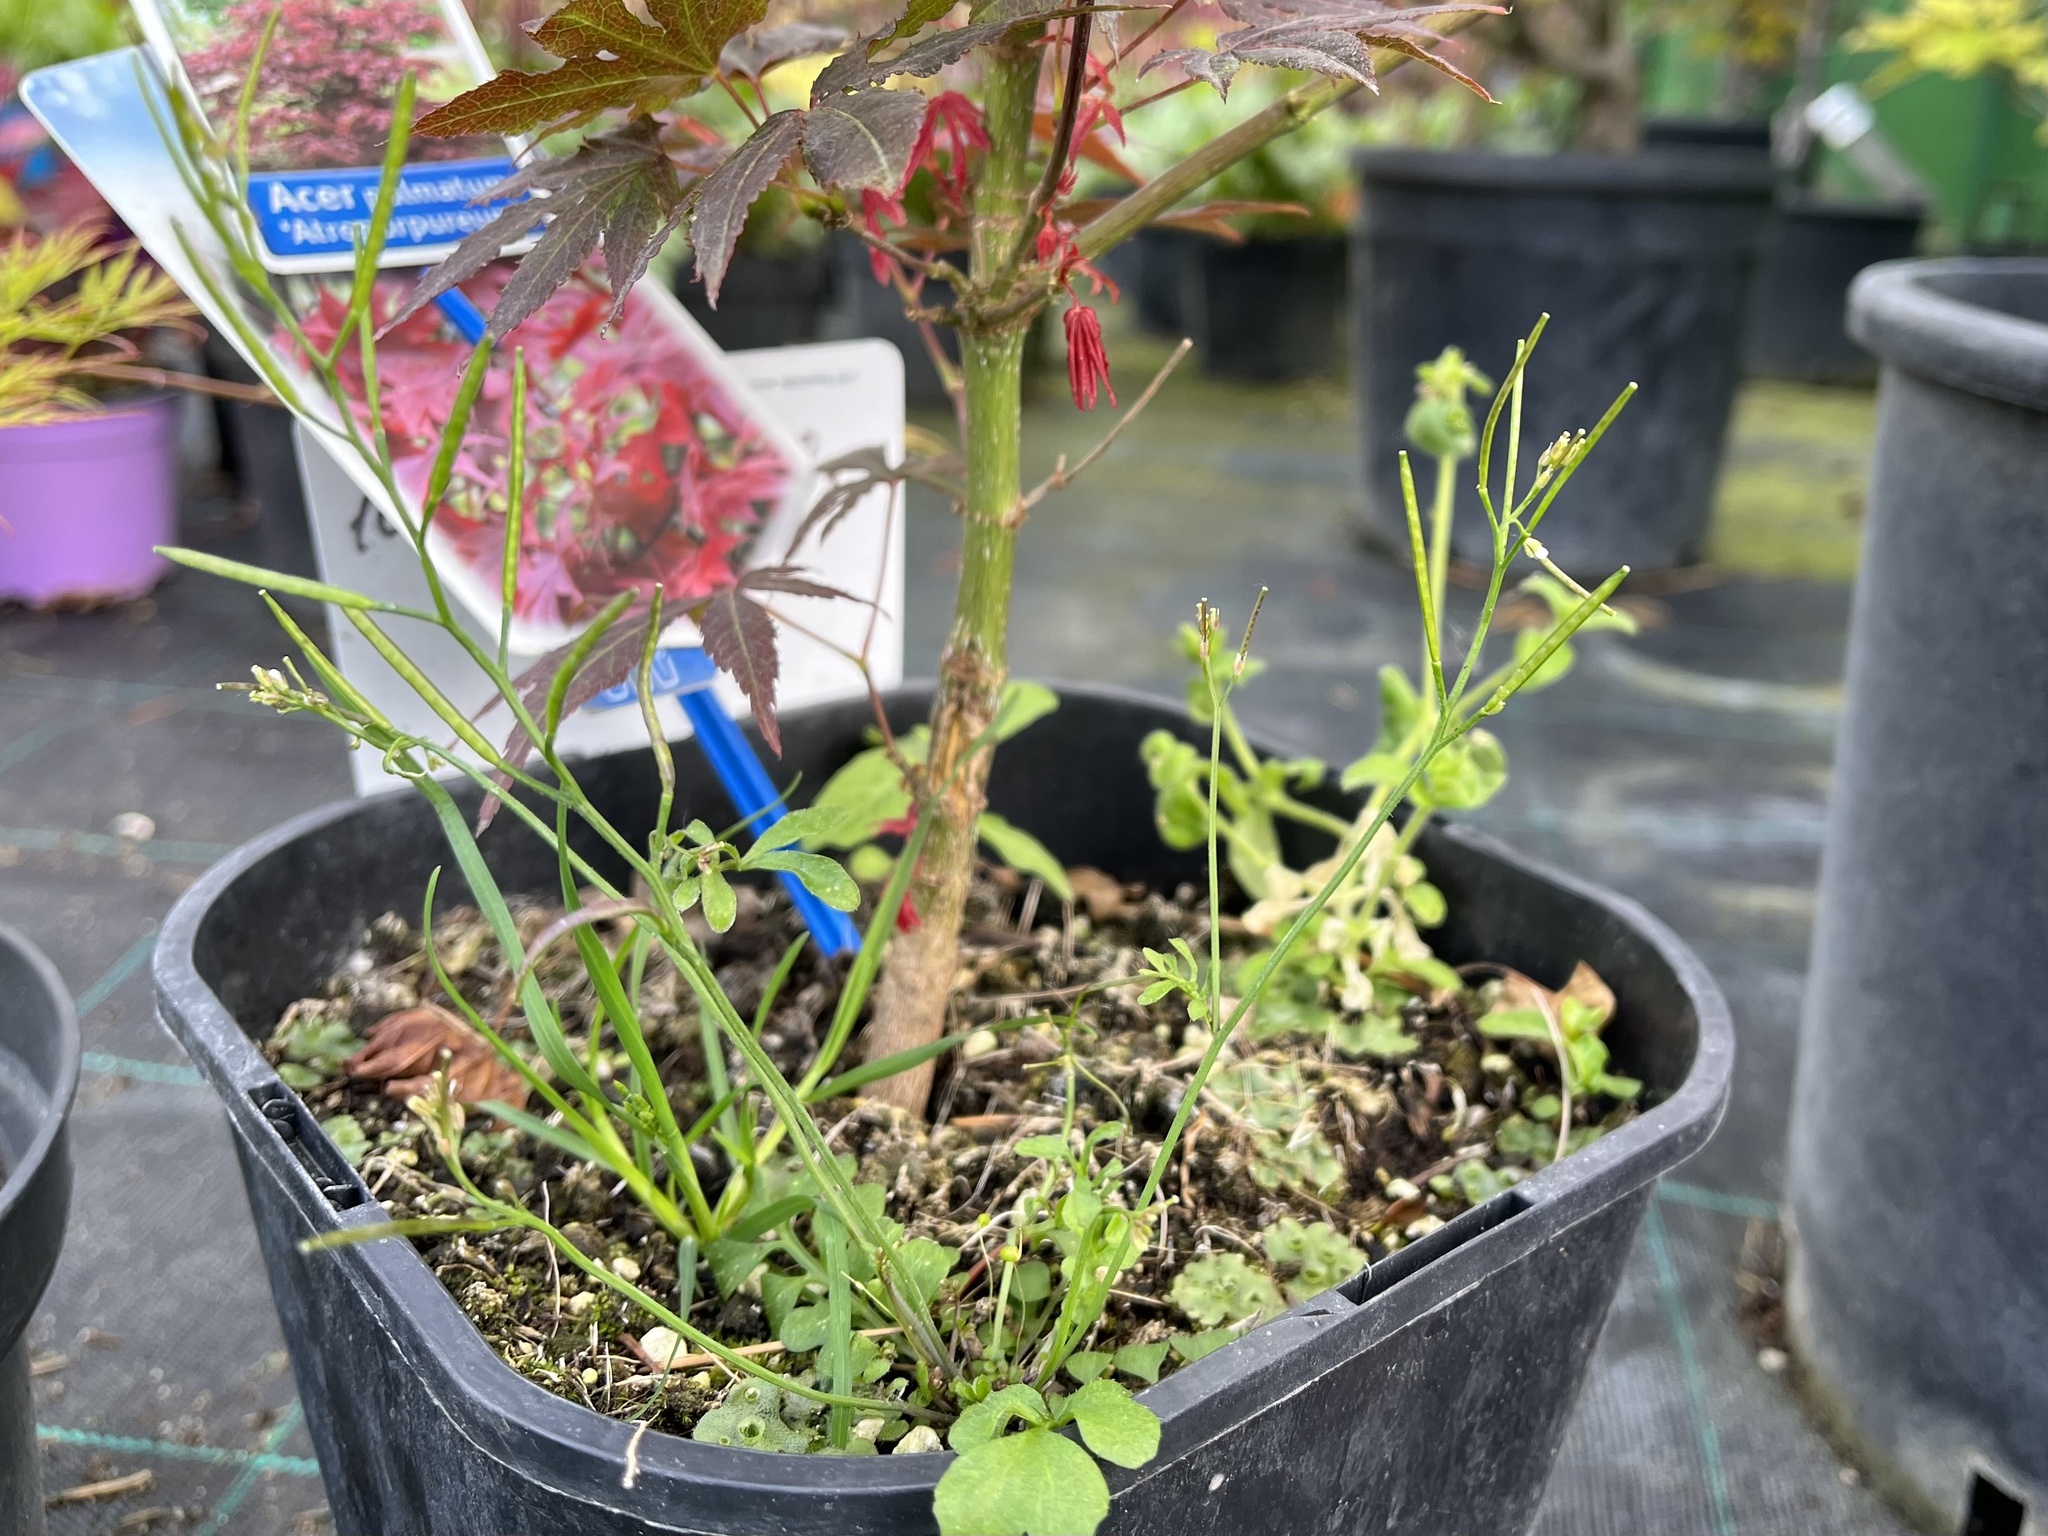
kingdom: Plantae
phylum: Tracheophyta
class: Magnoliopsida
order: Brassicales
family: Brassicaceae
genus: Cardamine
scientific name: Cardamine hirsuta
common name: Hairy bittercress
